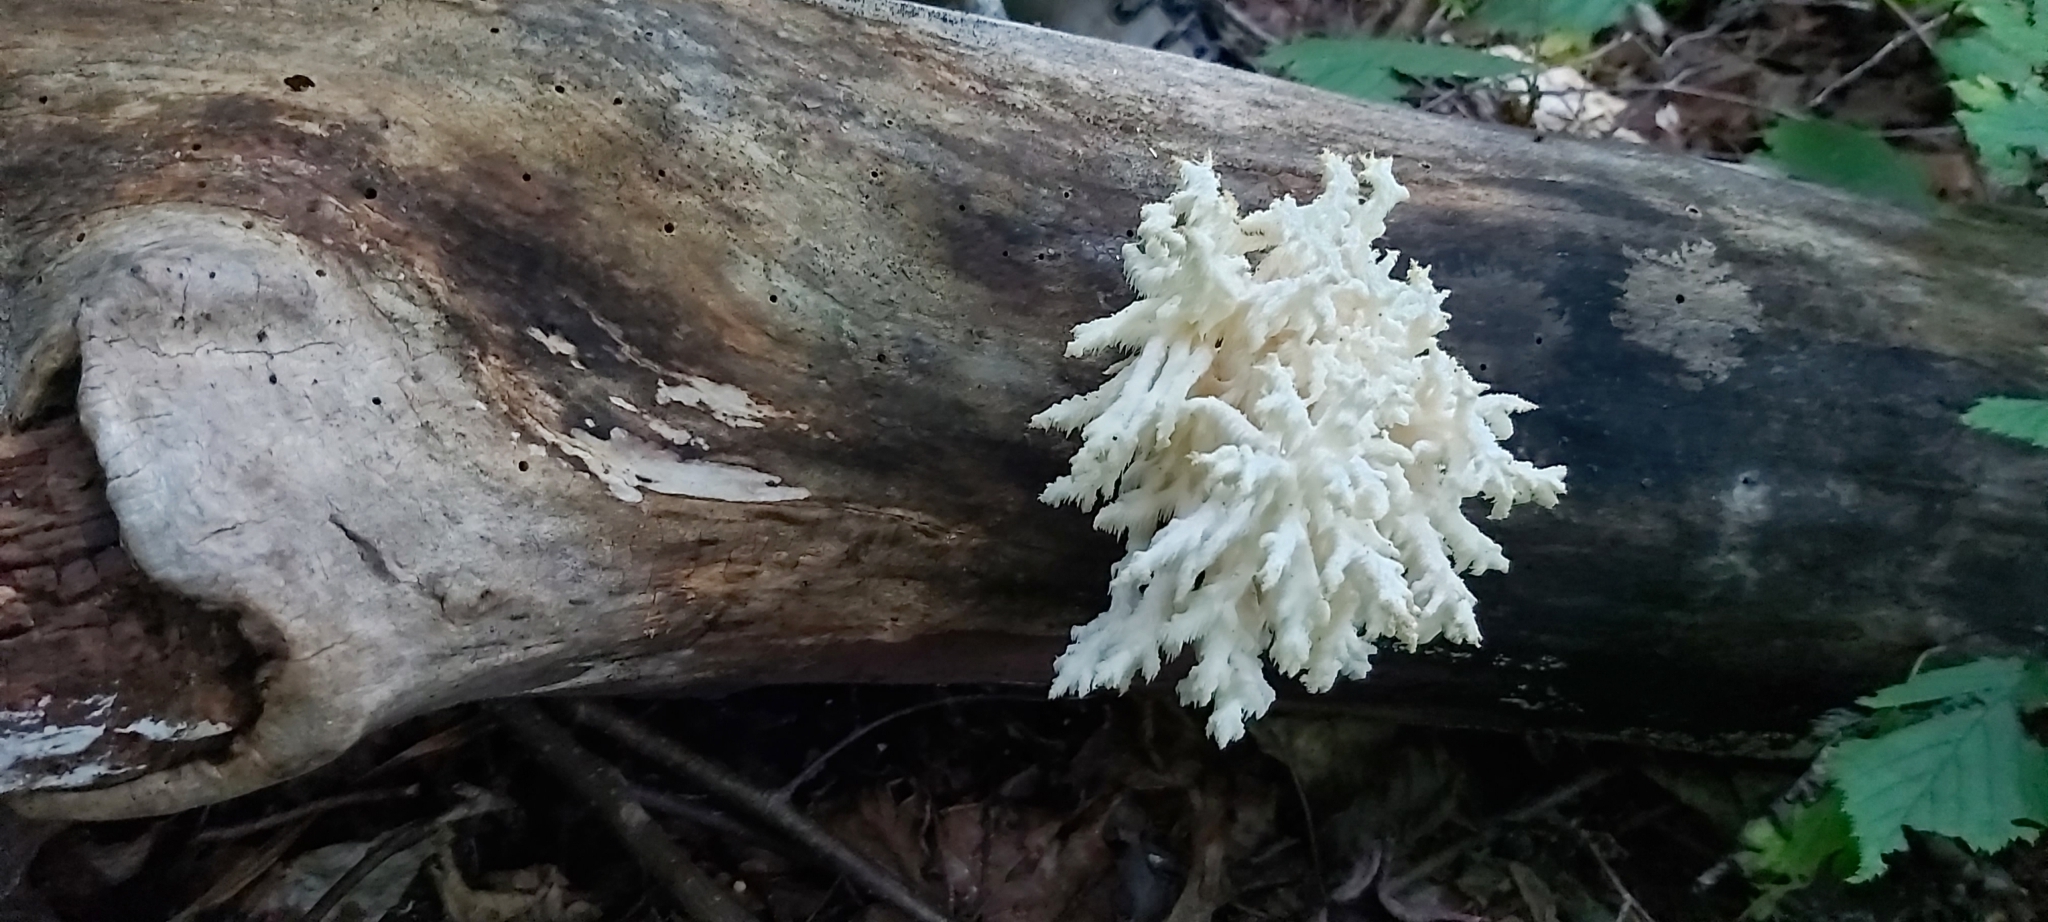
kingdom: Fungi
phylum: Basidiomycota
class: Agaricomycetes
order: Russulales
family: Hericiaceae
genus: Hericium
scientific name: Hericium coralloides
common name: Coral tooth
